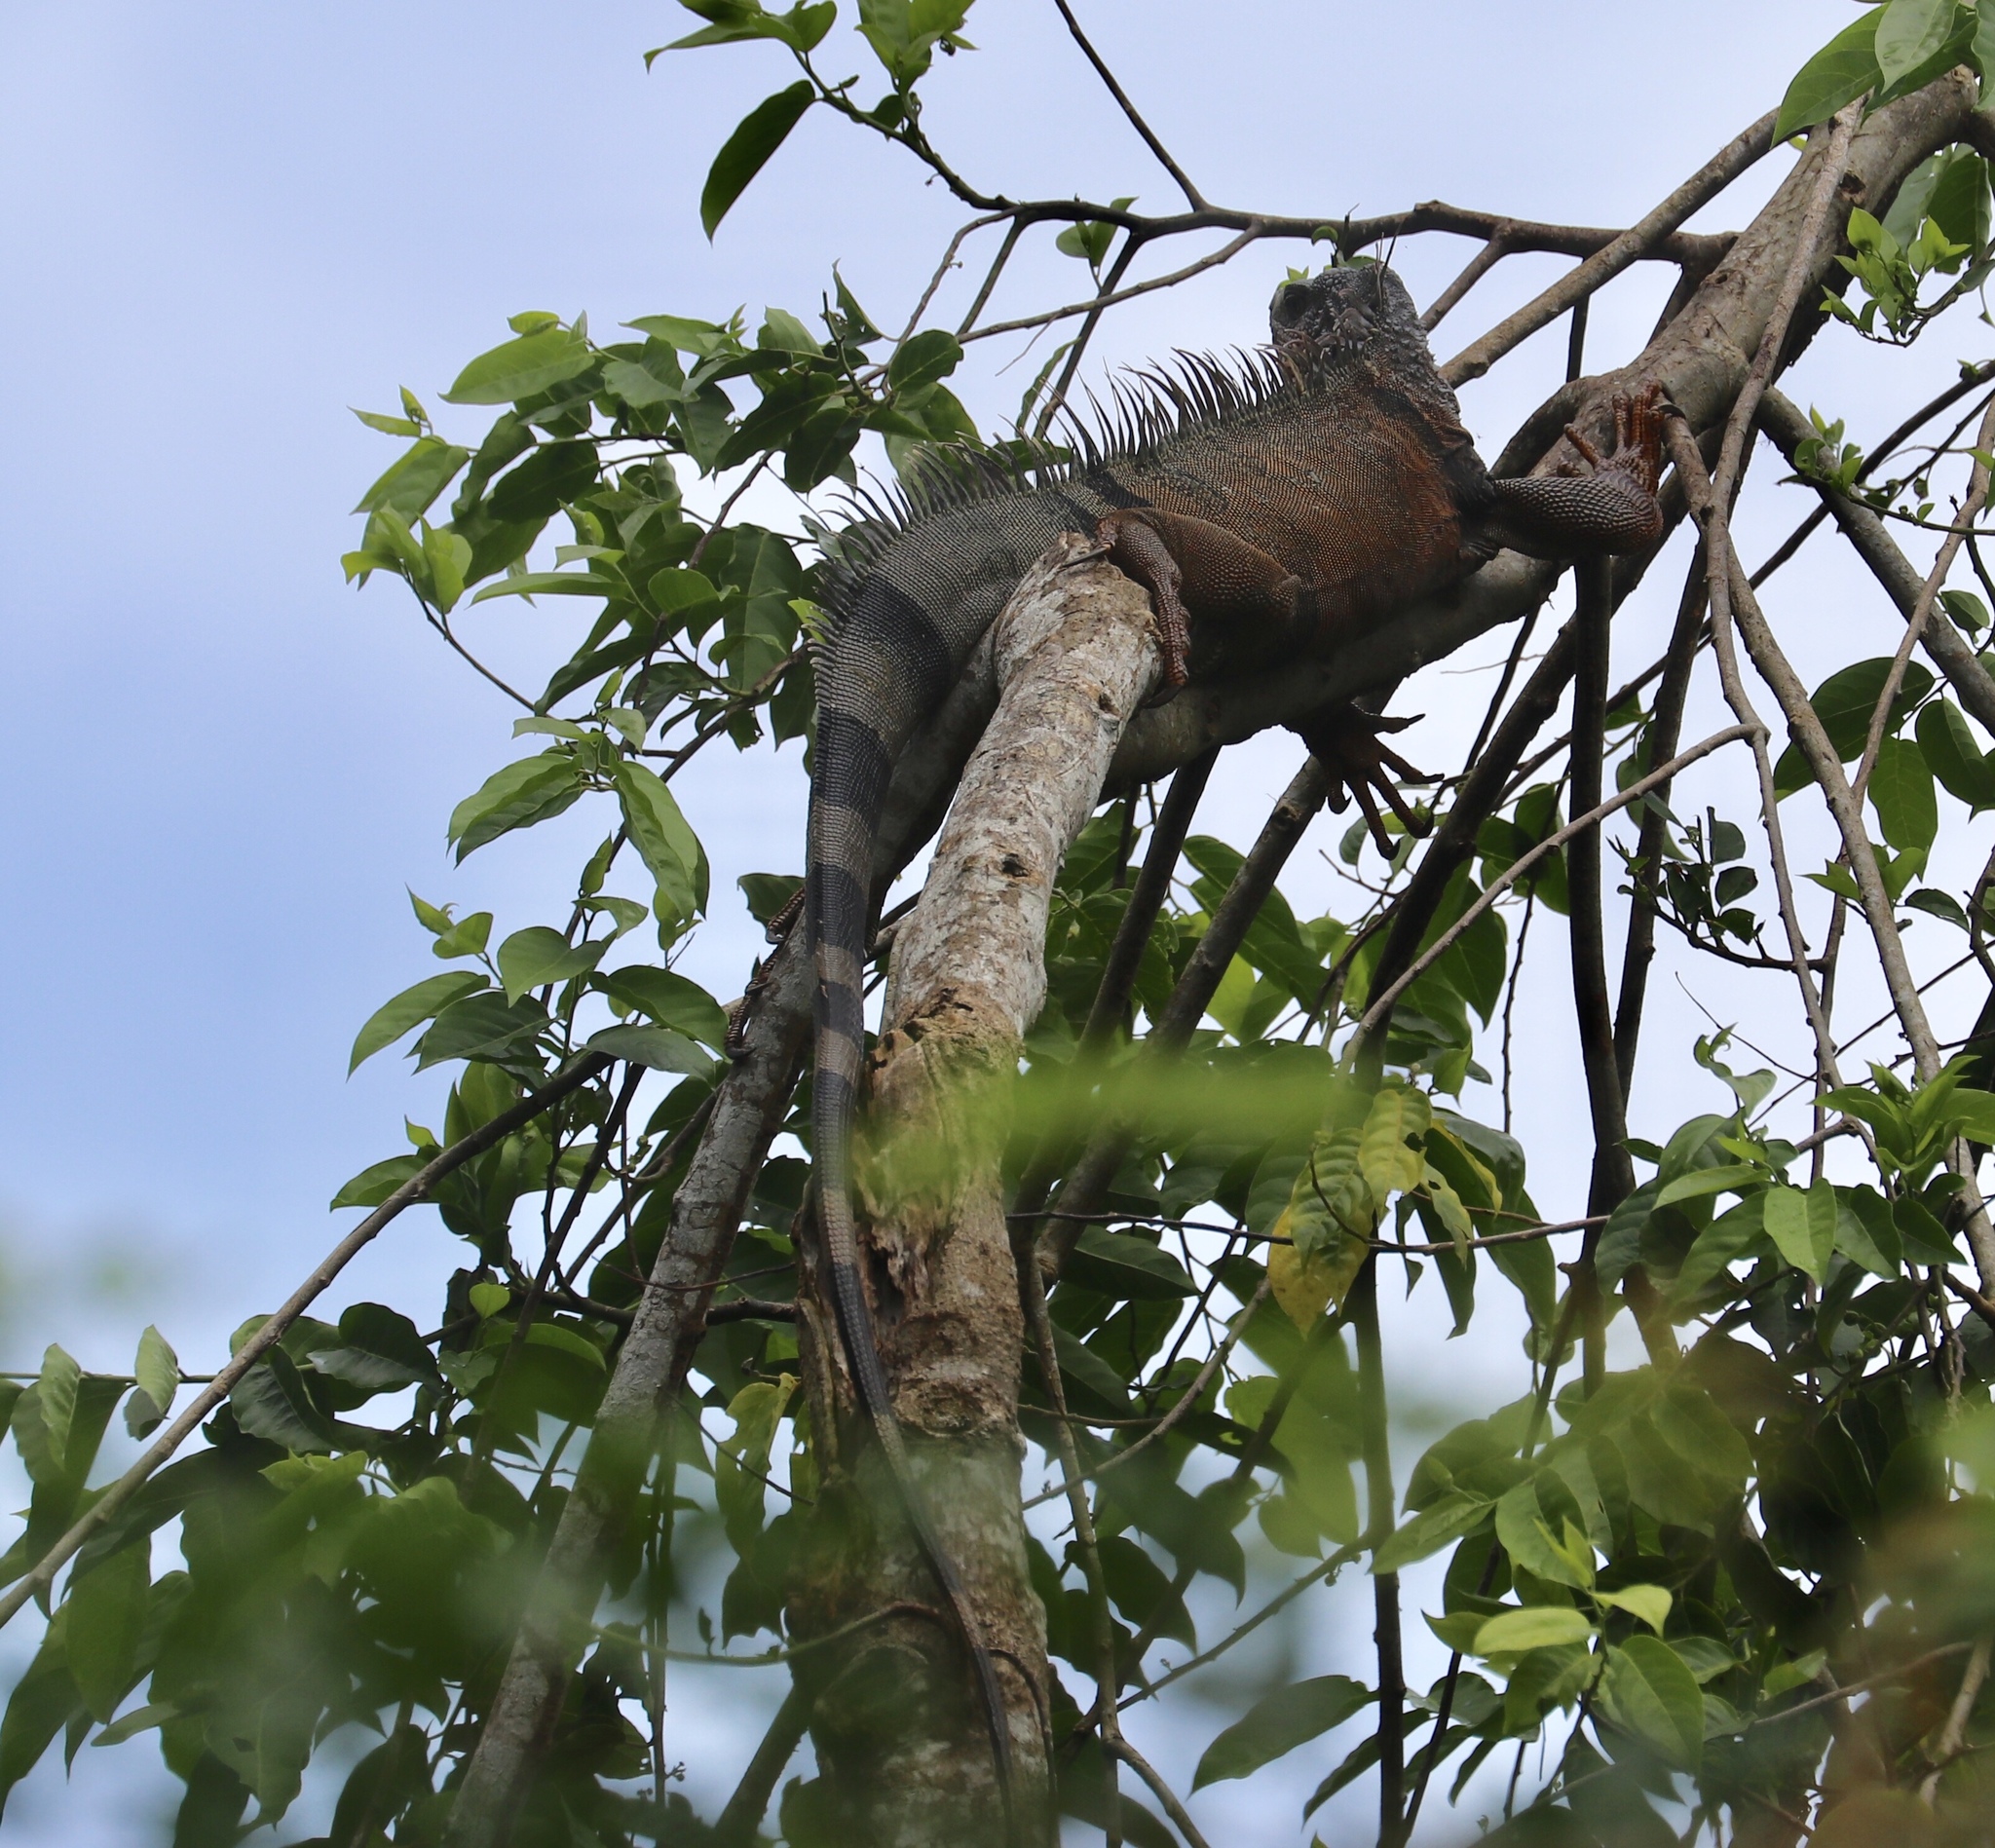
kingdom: Animalia
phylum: Chordata
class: Squamata
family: Iguanidae
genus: Iguana
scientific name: Iguana iguana
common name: Green iguana
